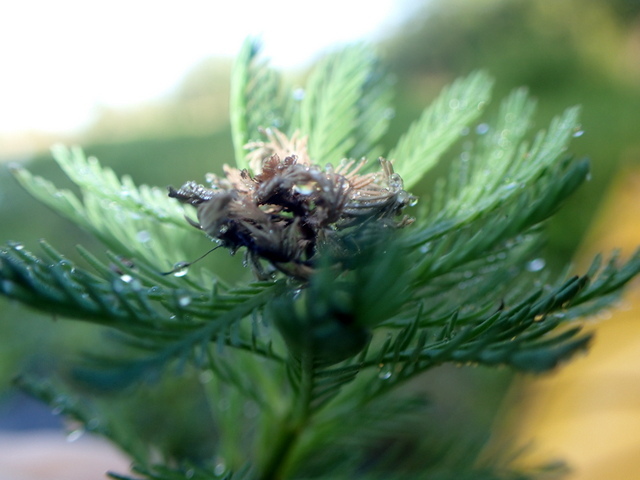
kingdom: Plantae
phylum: Tracheophyta
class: Magnoliopsida
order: Saxifragales
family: Haloragaceae
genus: Myriophyllum
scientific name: Myriophyllum aquaticum
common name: Parrot's feather
